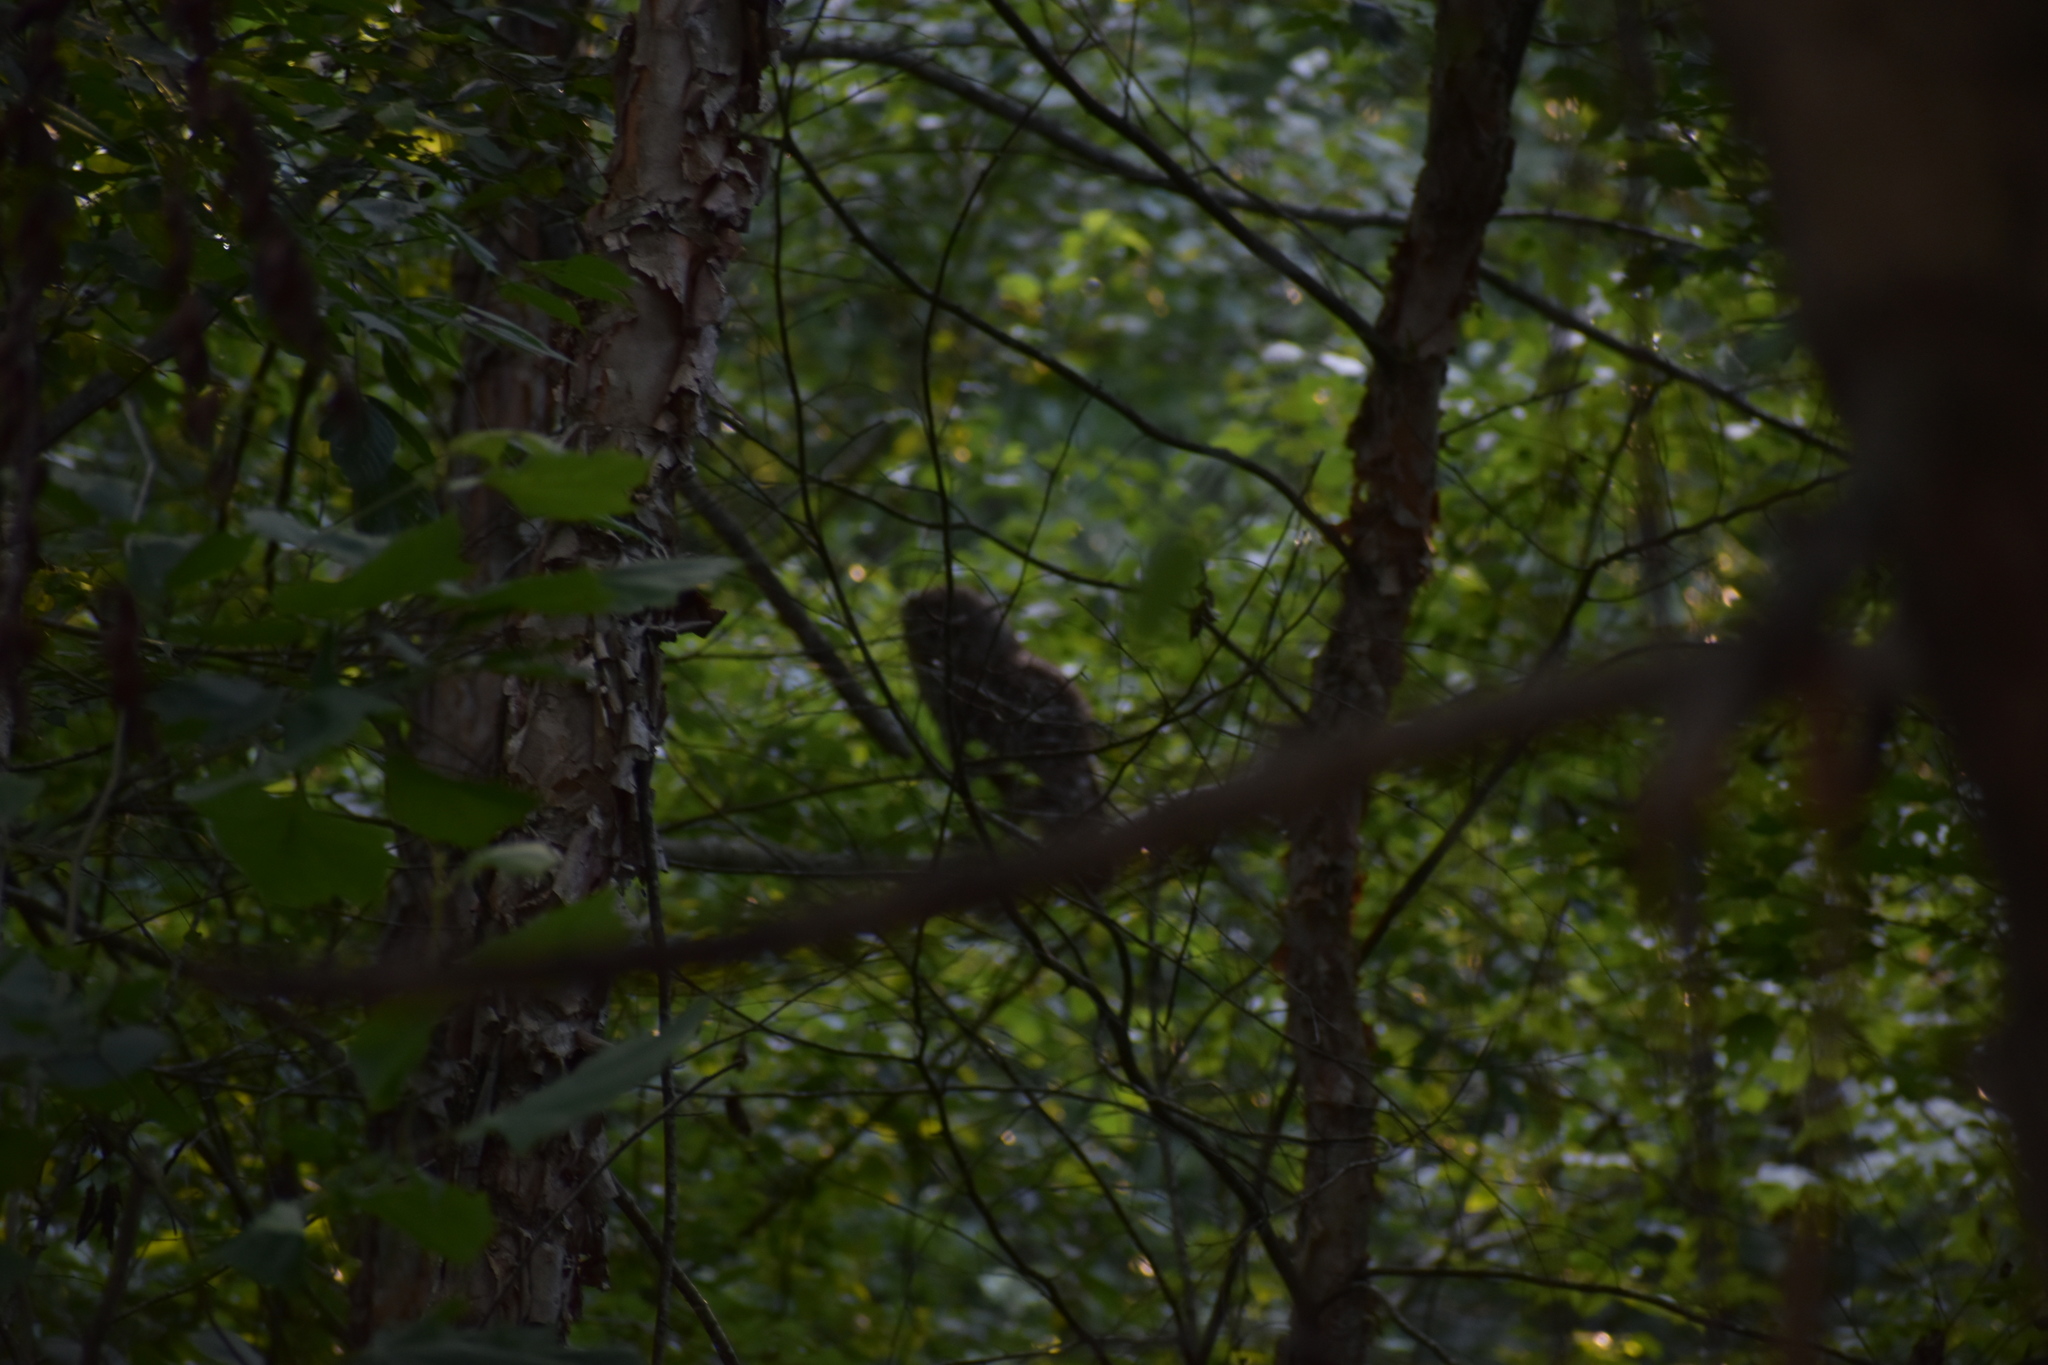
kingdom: Animalia
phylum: Chordata
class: Aves
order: Strigiformes
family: Strigidae
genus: Strix
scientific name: Strix varia
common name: Barred owl
